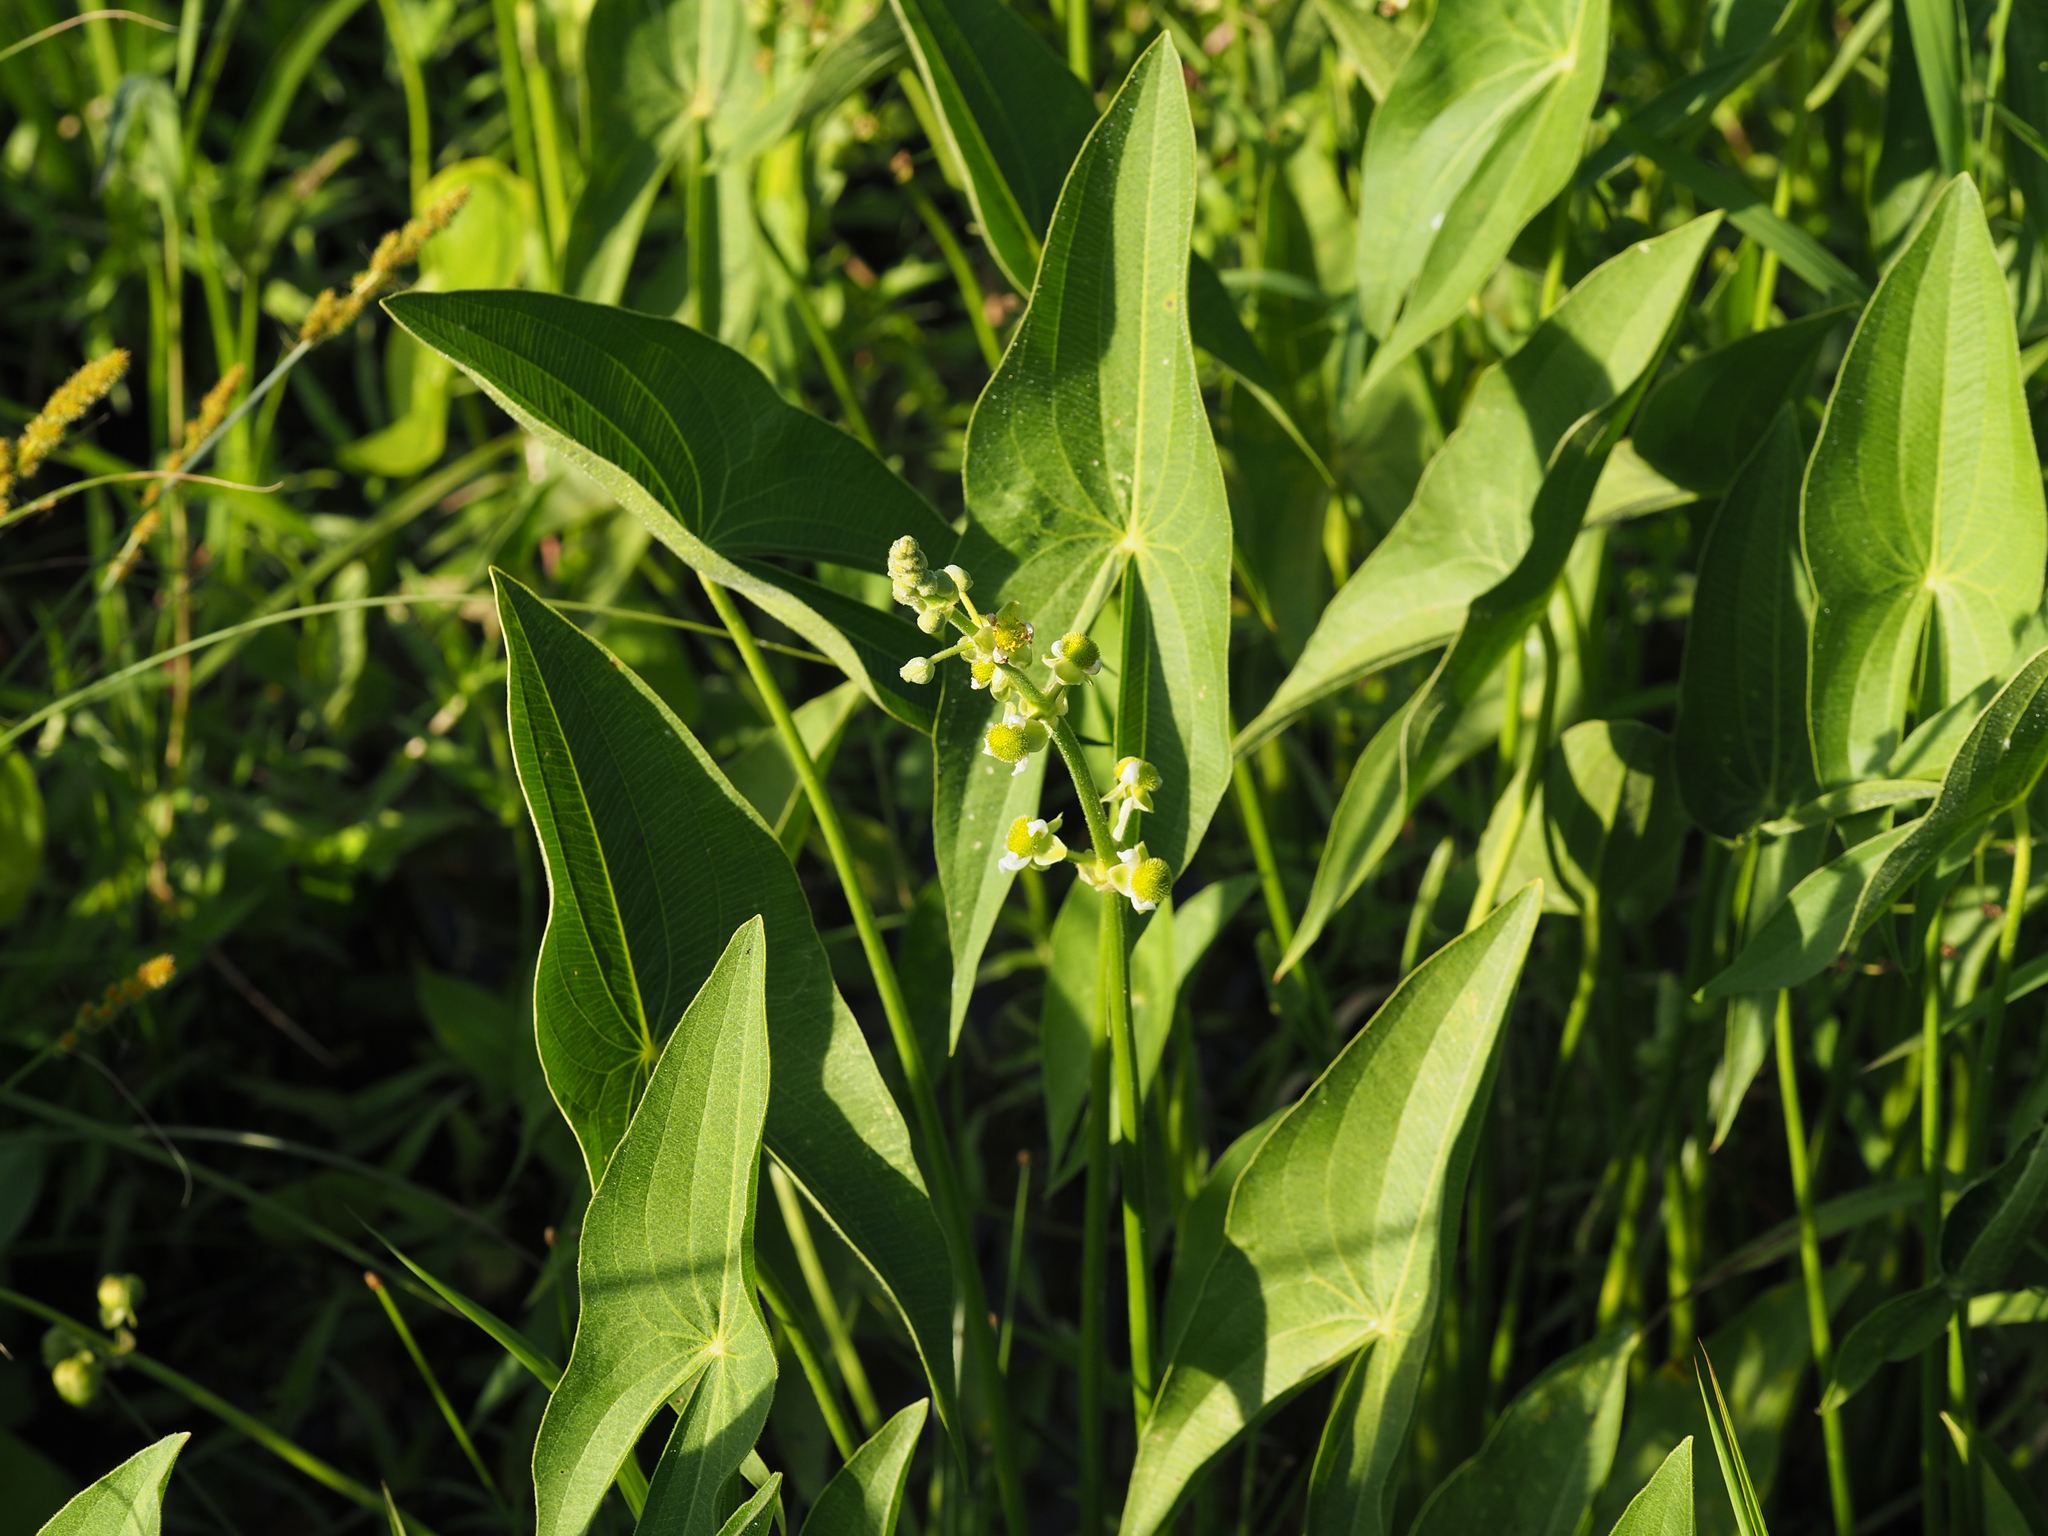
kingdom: Plantae
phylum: Tracheophyta
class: Liliopsida
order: Alismatales
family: Alismataceae
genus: Sagittaria
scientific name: Sagittaria latifolia
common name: Duck-potato
